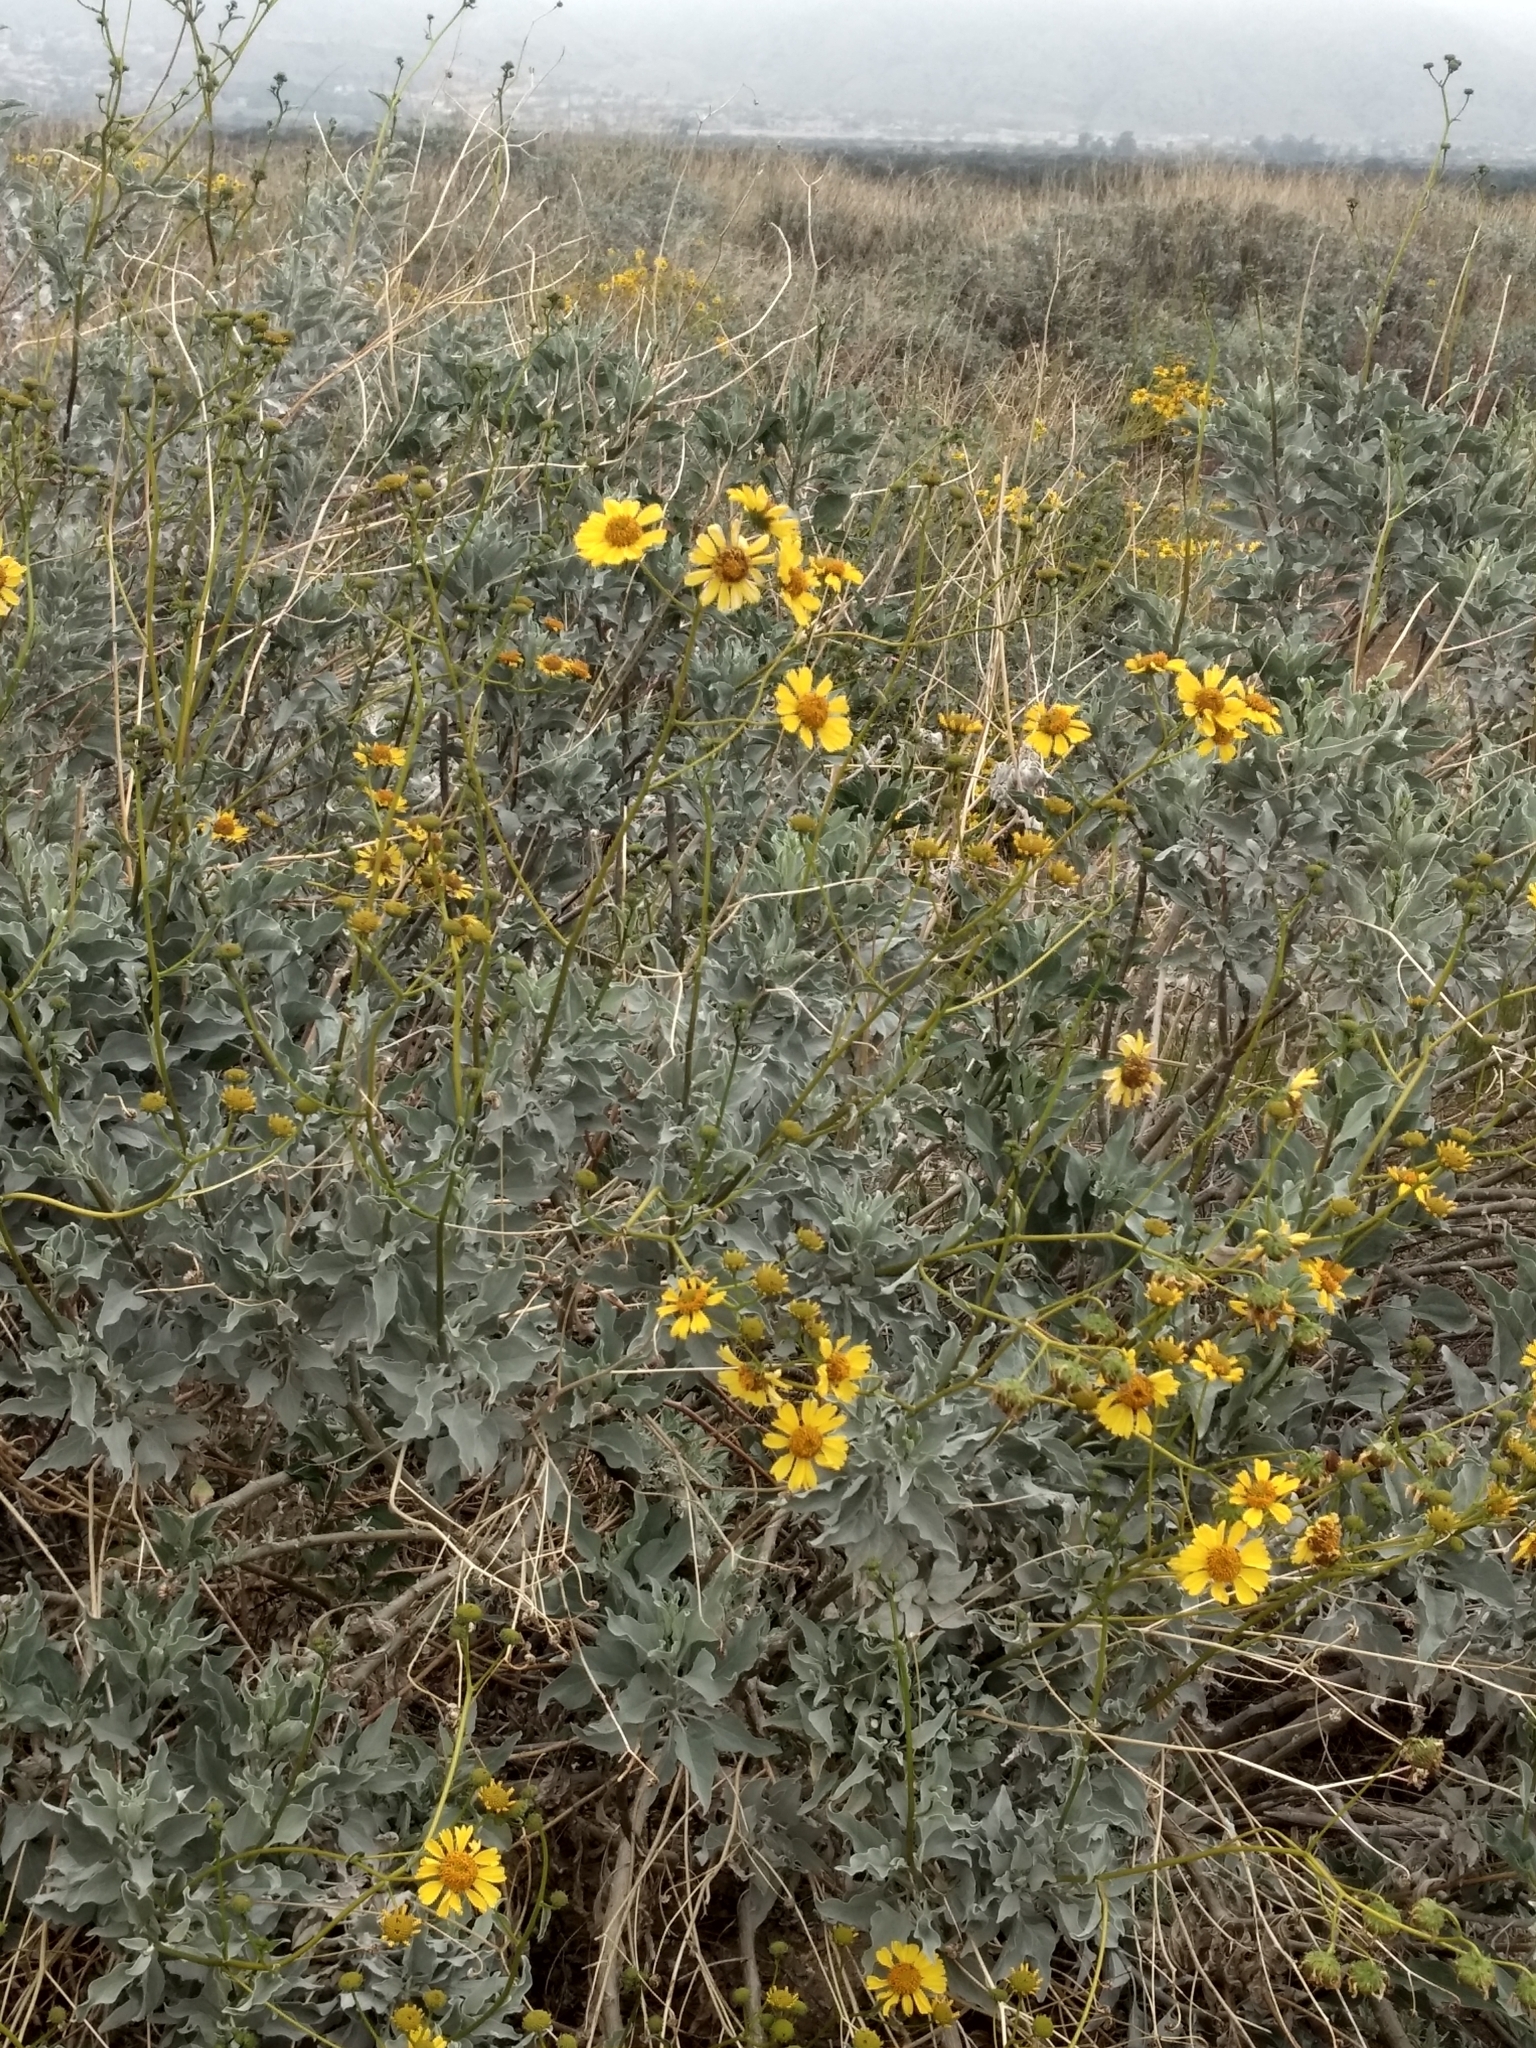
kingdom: Plantae
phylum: Tracheophyta
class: Magnoliopsida
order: Asterales
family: Asteraceae
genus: Encelia
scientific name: Encelia farinosa
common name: Brittlebush
